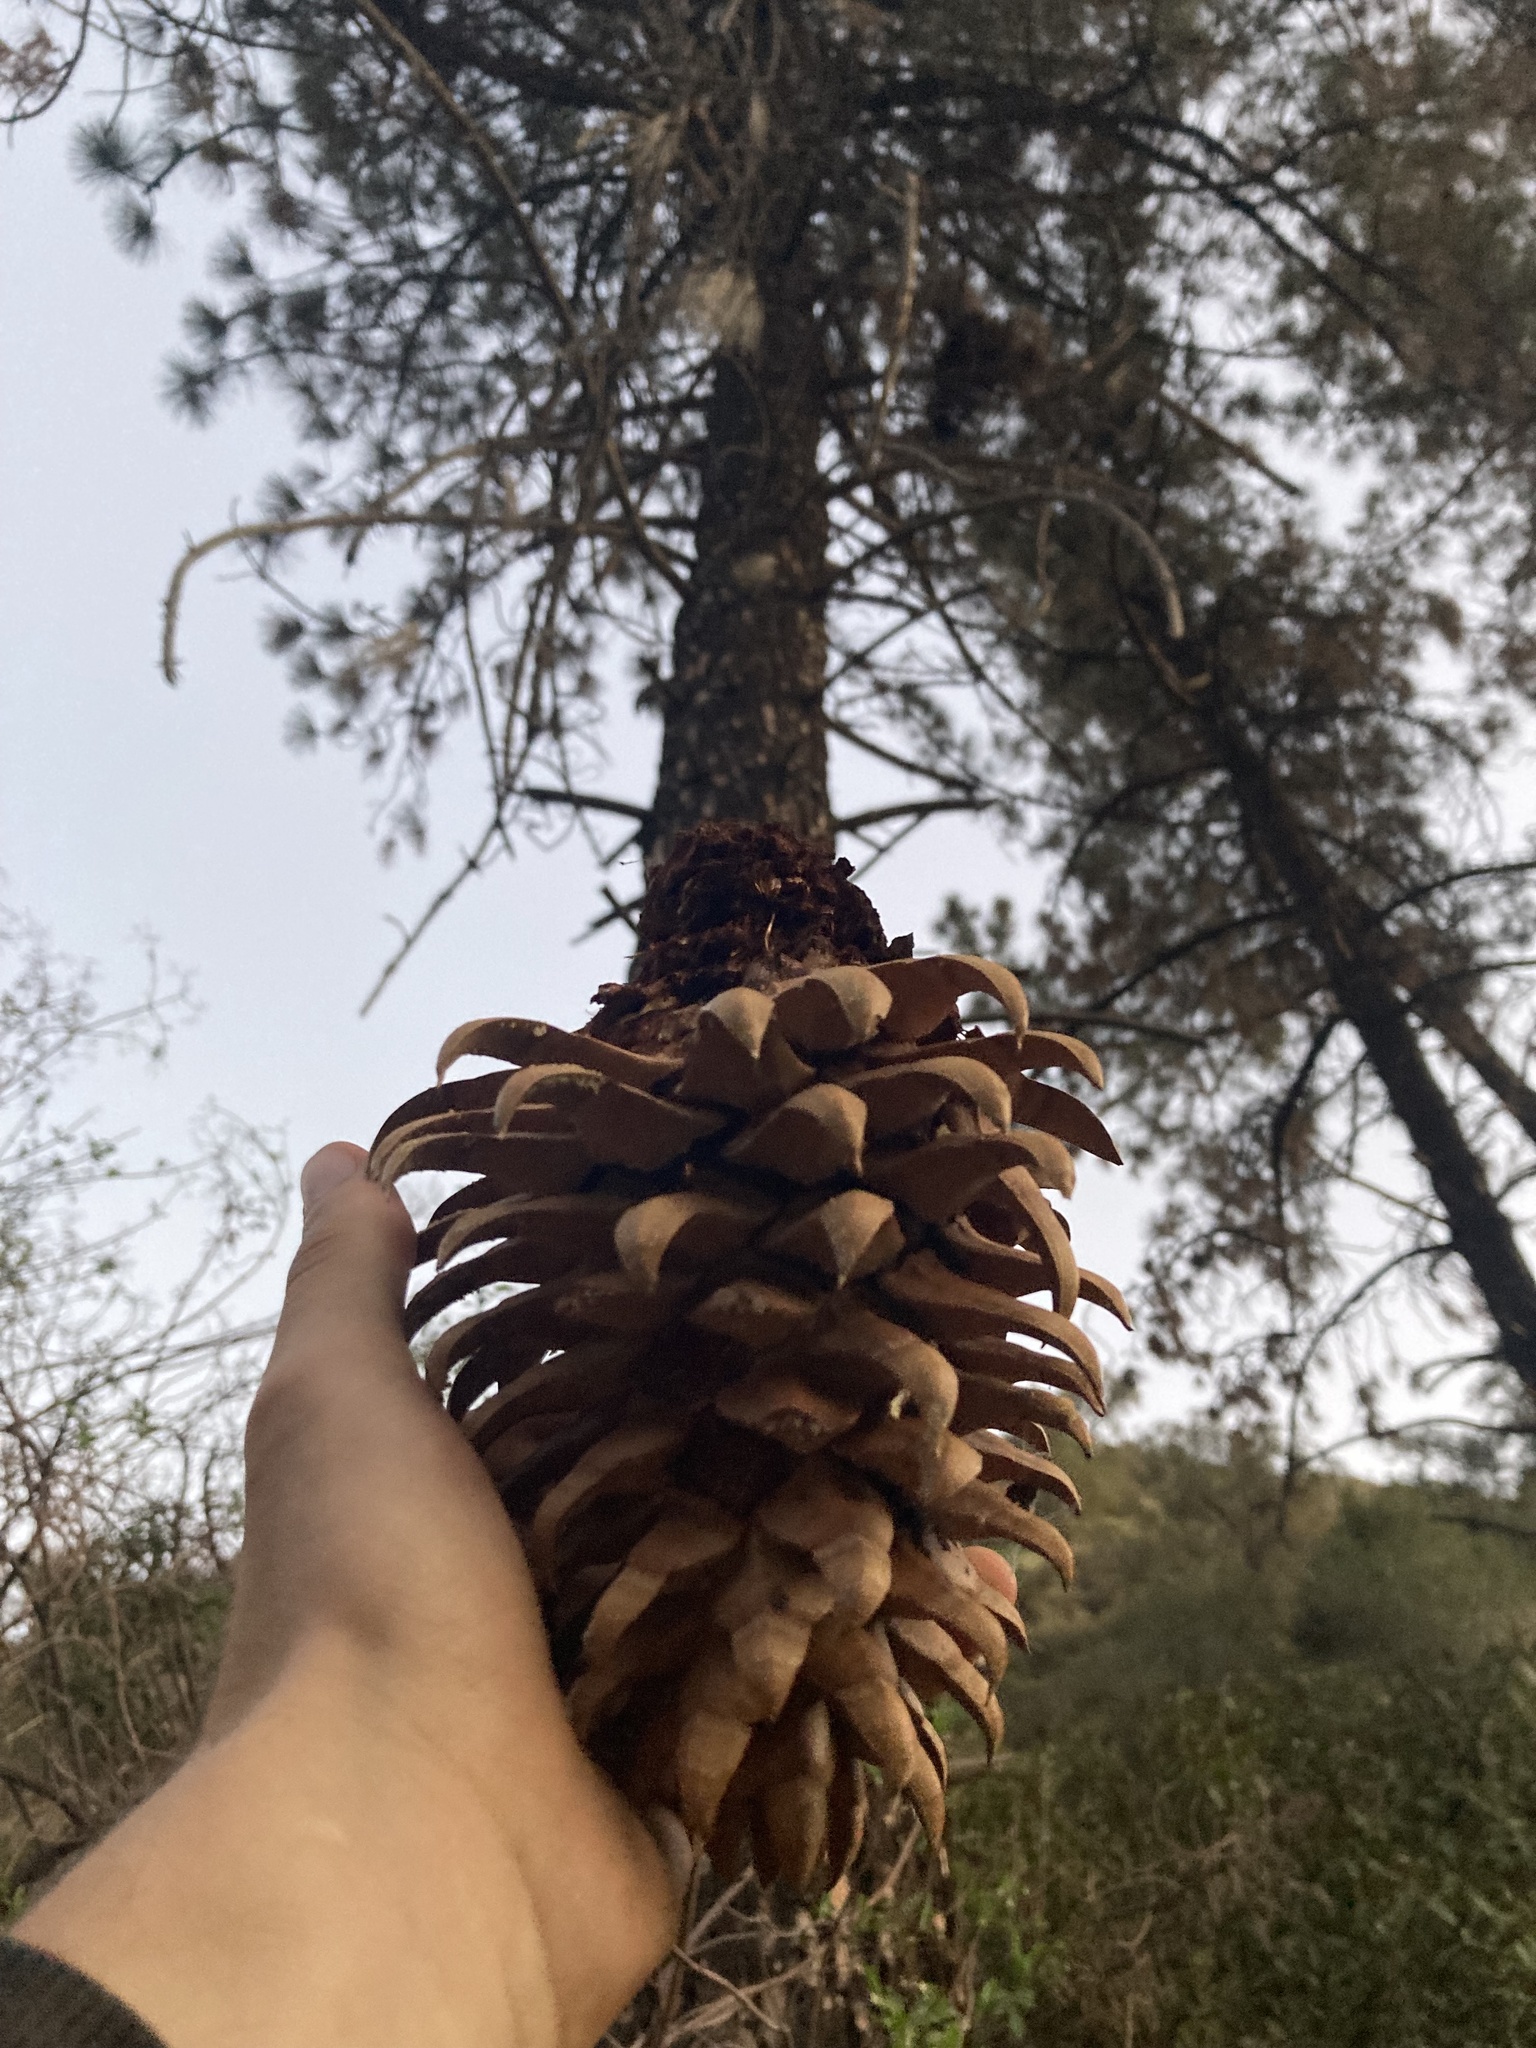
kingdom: Plantae
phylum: Tracheophyta
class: Pinopsida
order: Pinales
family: Pinaceae
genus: Pinus
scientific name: Pinus coulteri
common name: Coulter pine
